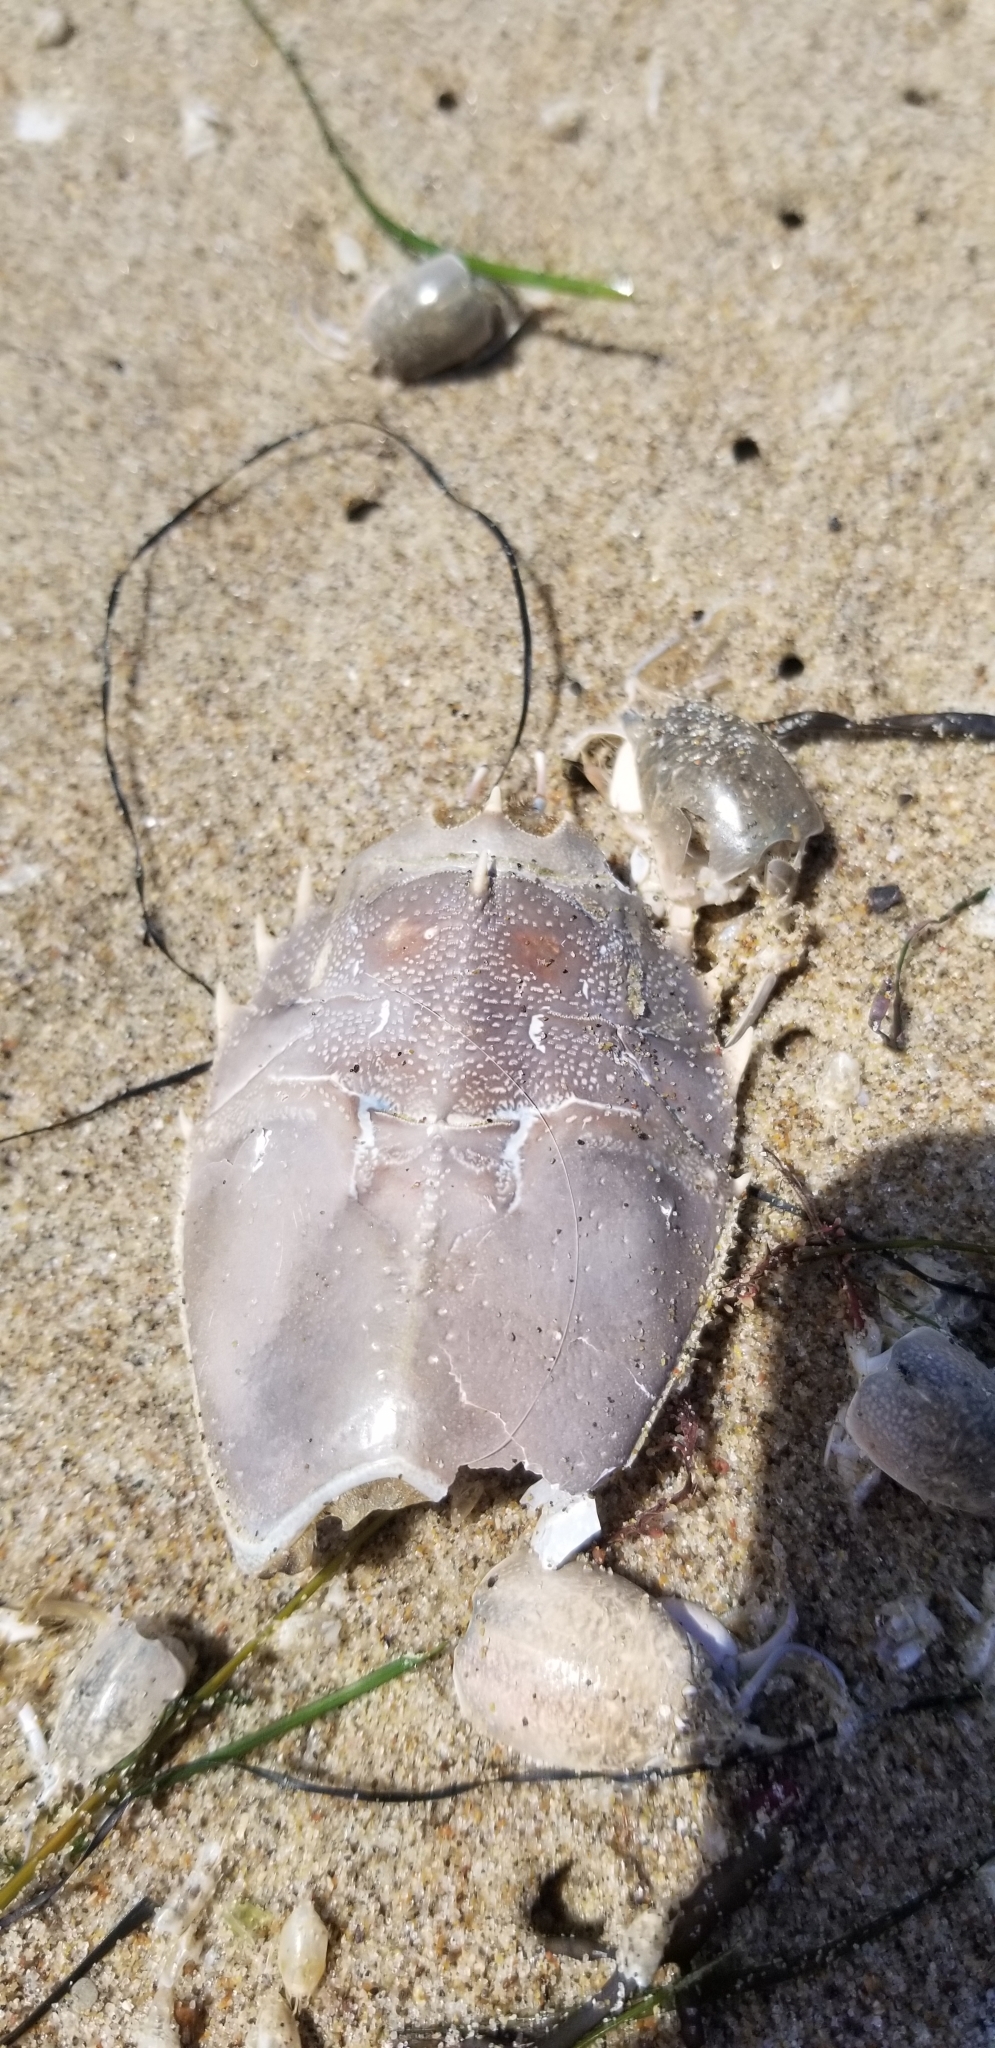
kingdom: Animalia
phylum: Arthropoda
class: Malacostraca
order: Decapoda
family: Blepharipodidae
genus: Blepharipoda
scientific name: Blepharipoda occidentalis
